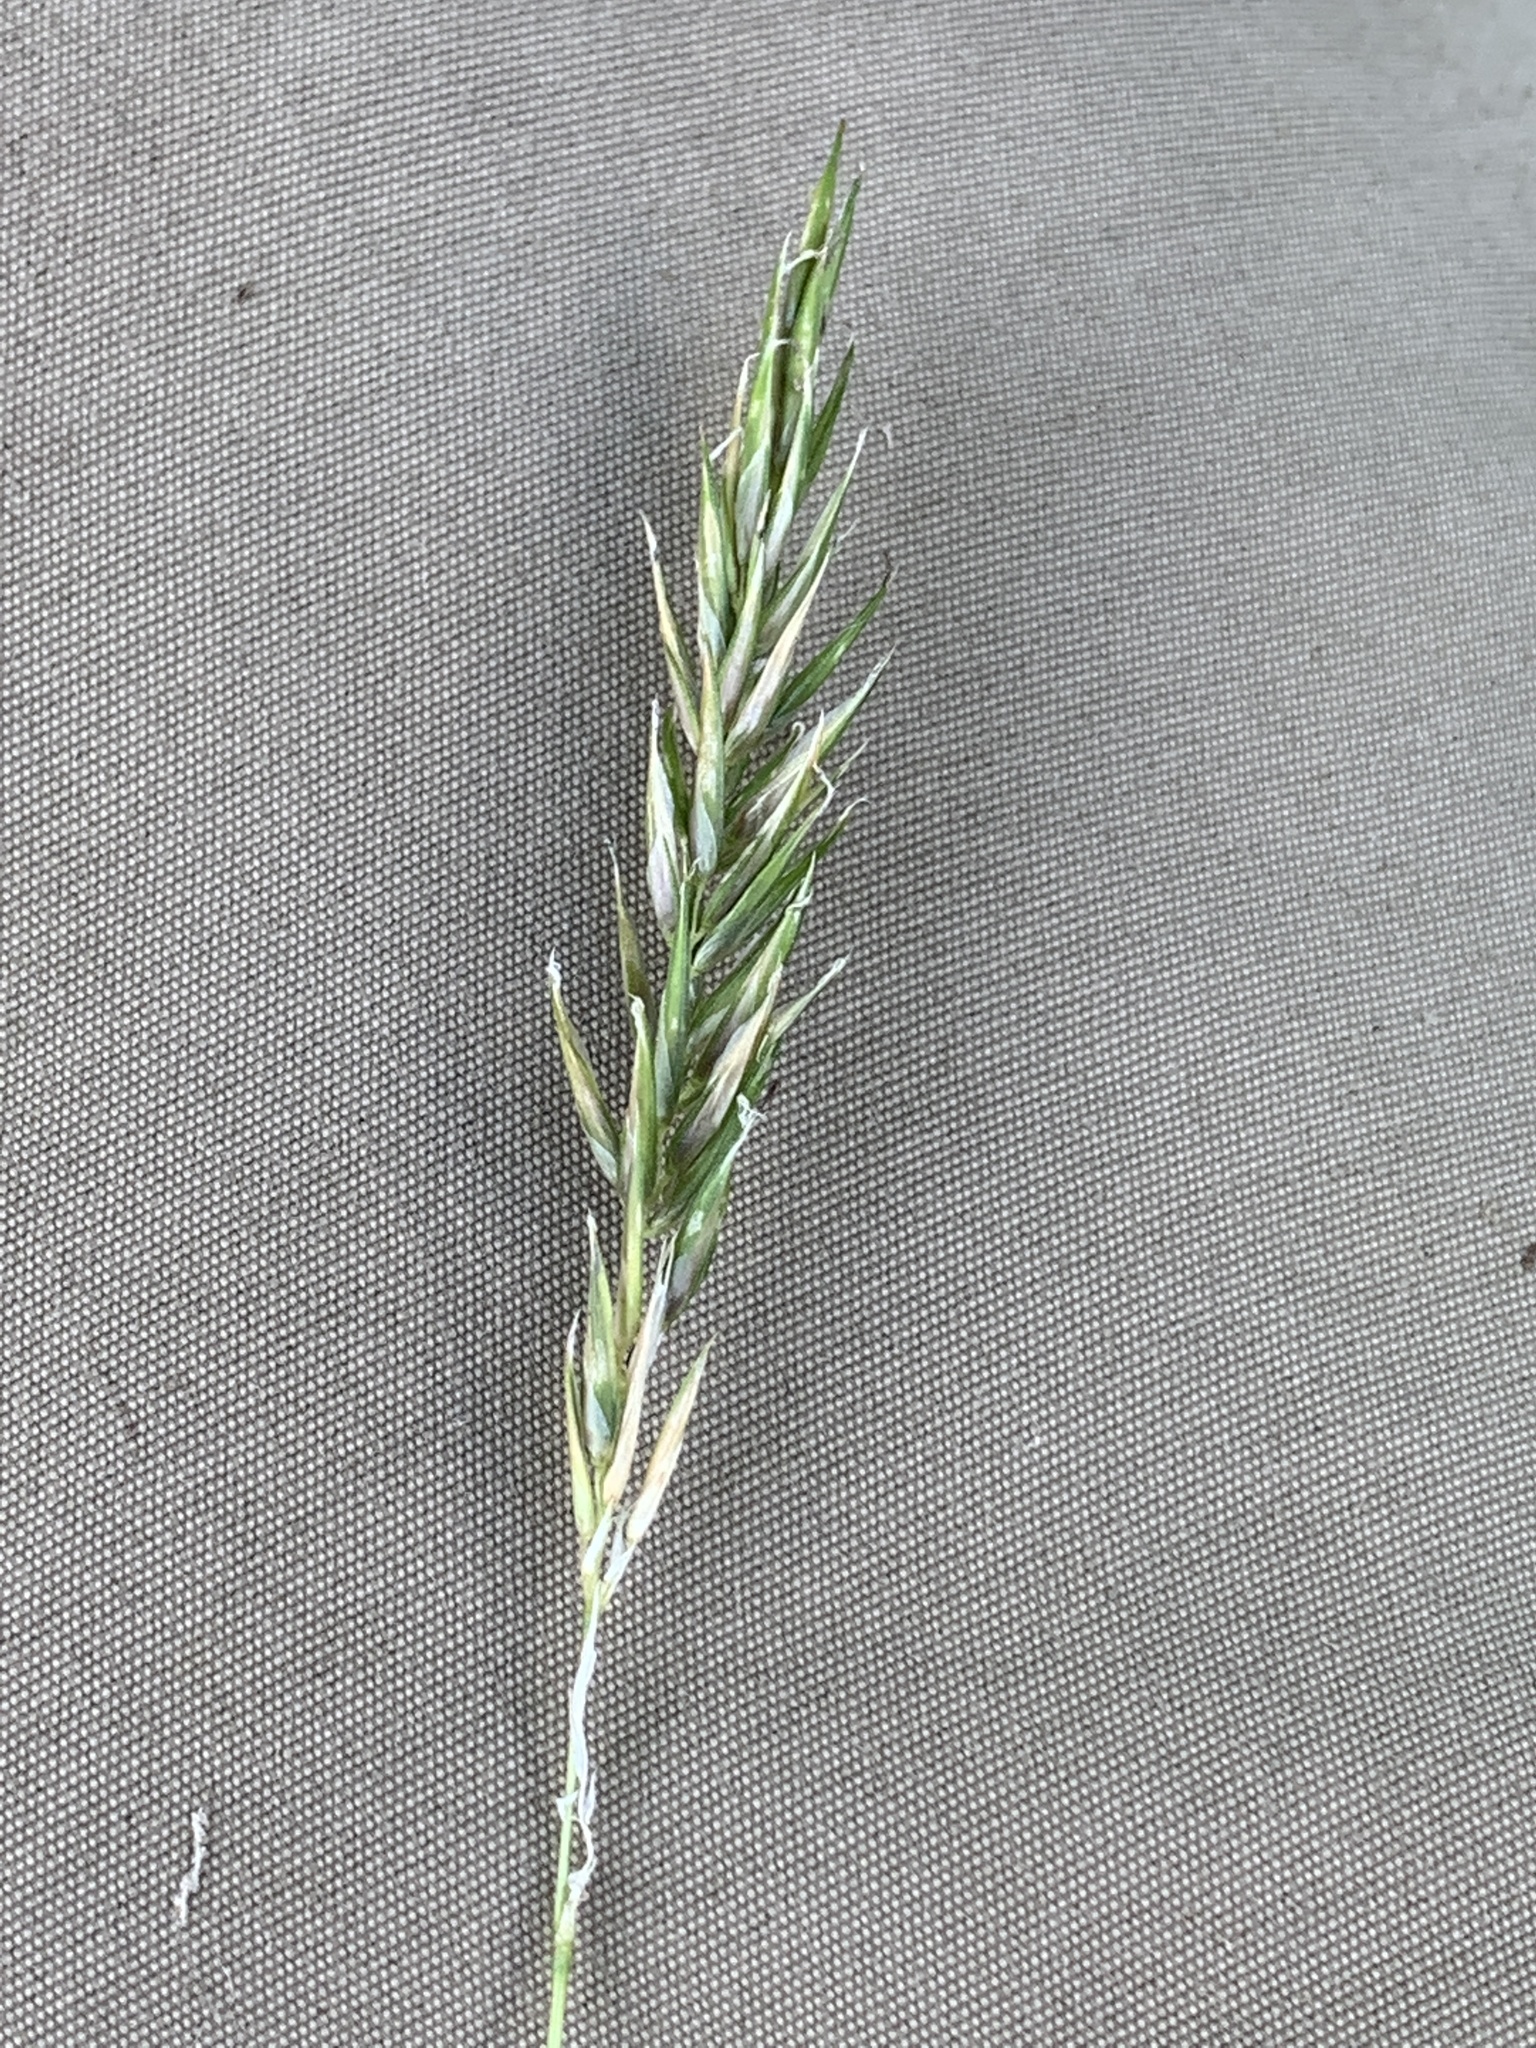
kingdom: Plantae
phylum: Tracheophyta
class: Liliopsida
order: Poales
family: Poaceae
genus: Anthoxanthum
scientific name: Anthoxanthum odoratum
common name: Sweet vernalgrass
